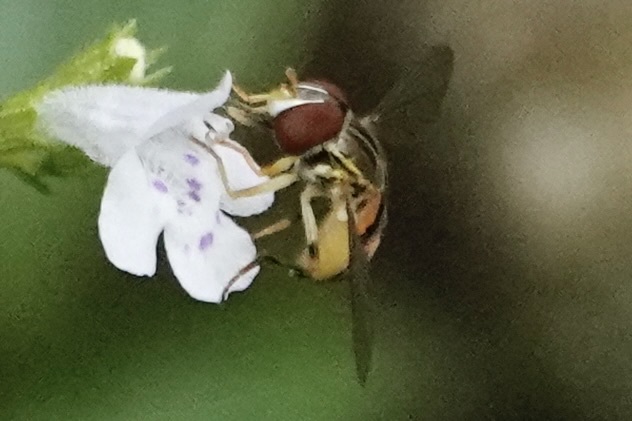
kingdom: Animalia
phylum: Arthropoda
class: Insecta
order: Diptera
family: Syrphidae
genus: Toxomerus
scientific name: Toxomerus boscii
